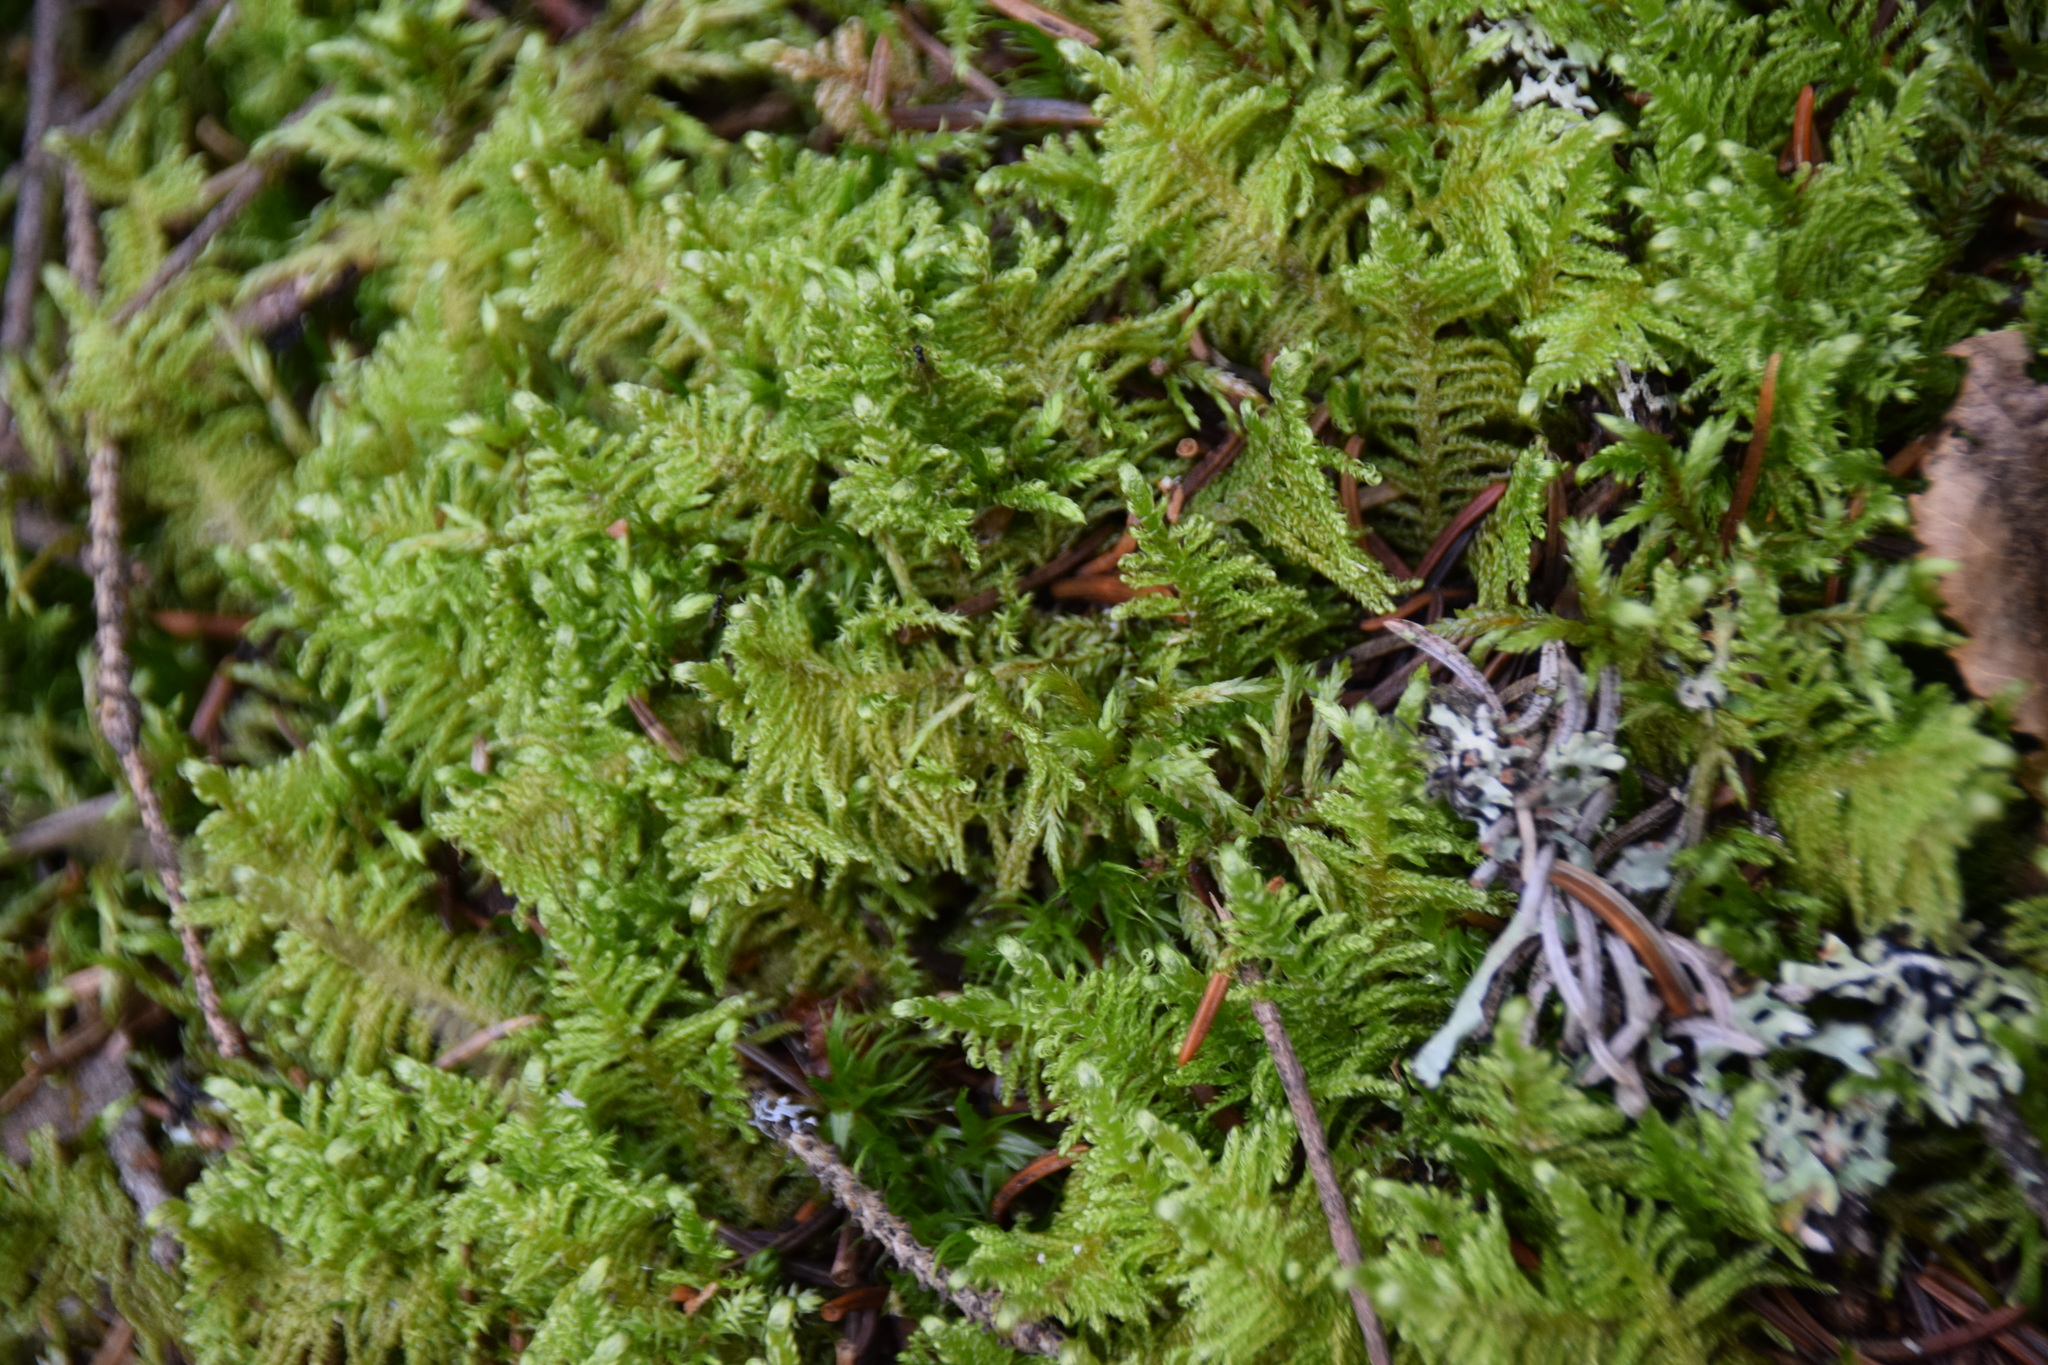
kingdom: Plantae
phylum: Bryophyta
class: Bryopsida
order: Hypnales
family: Pylaisiaceae
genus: Ptilium
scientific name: Ptilium crista-castrensis
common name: Knight's plume moss
